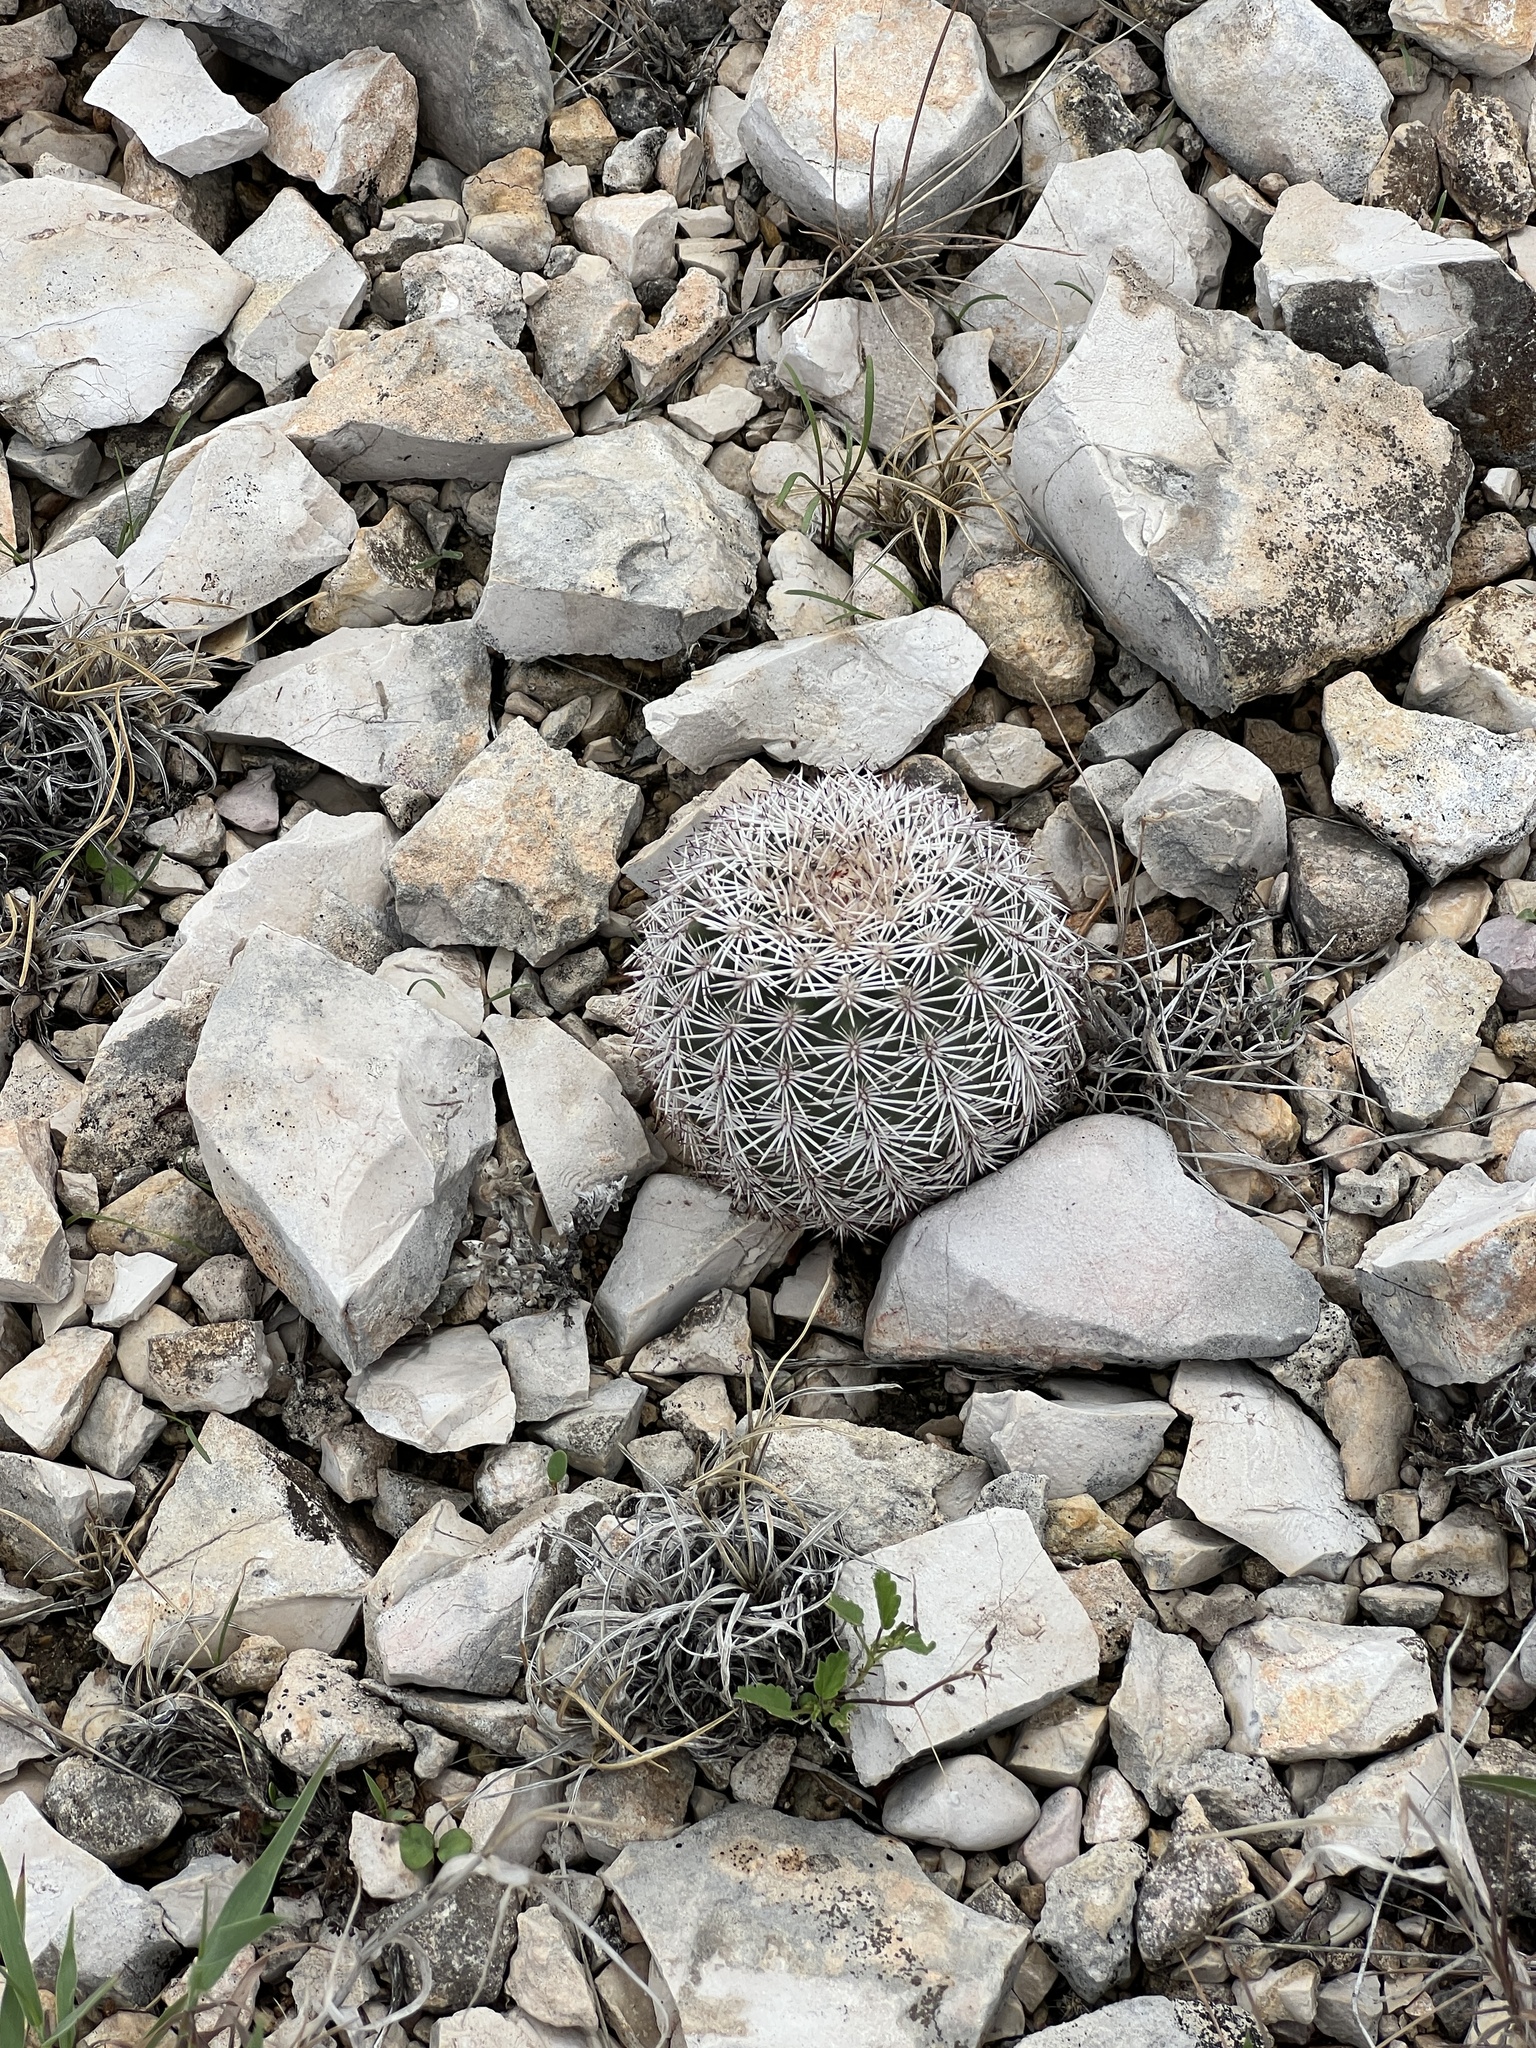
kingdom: Plantae
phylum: Tracheophyta
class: Magnoliopsida
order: Caryophyllales
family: Cactaceae
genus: Echinocereus
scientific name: Echinocereus pectinatus
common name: Rainbow cactus
